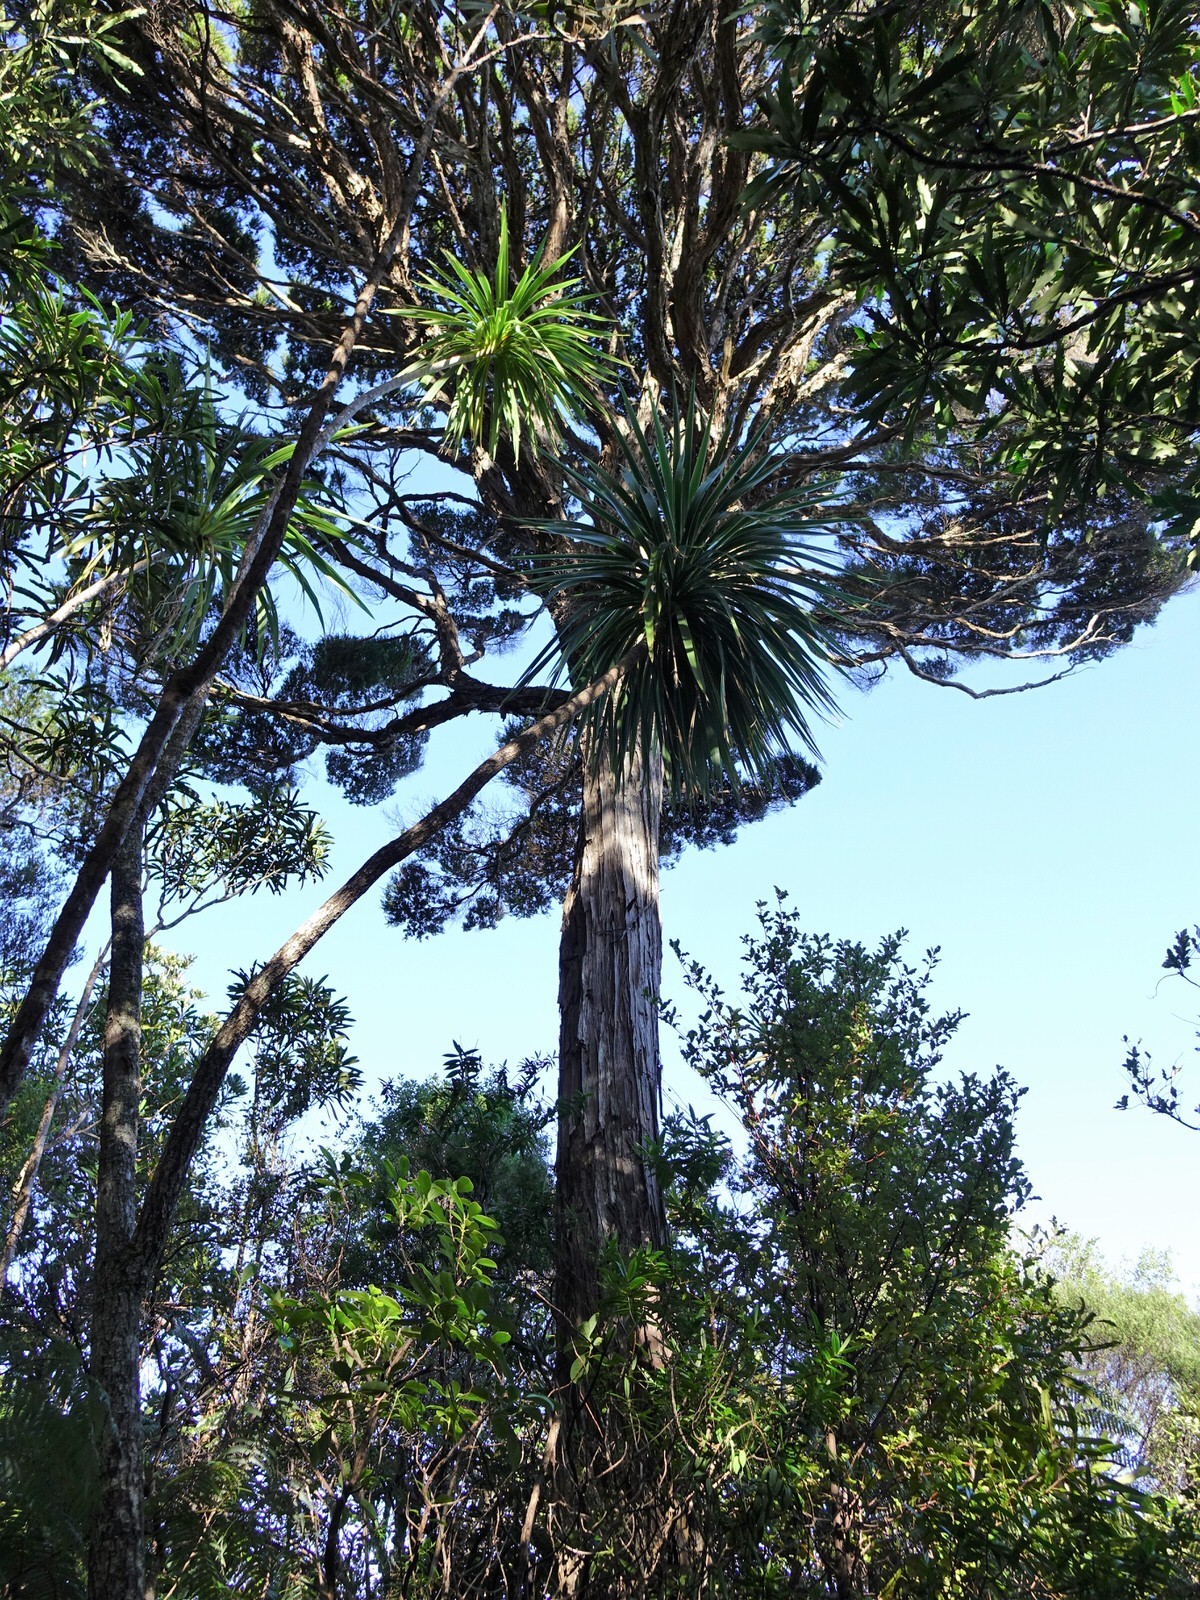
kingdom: Plantae
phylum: Tracheophyta
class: Magnoliopsida
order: Myrtales
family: Myrtaceae
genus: Kunzea
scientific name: Kunzea robusta
